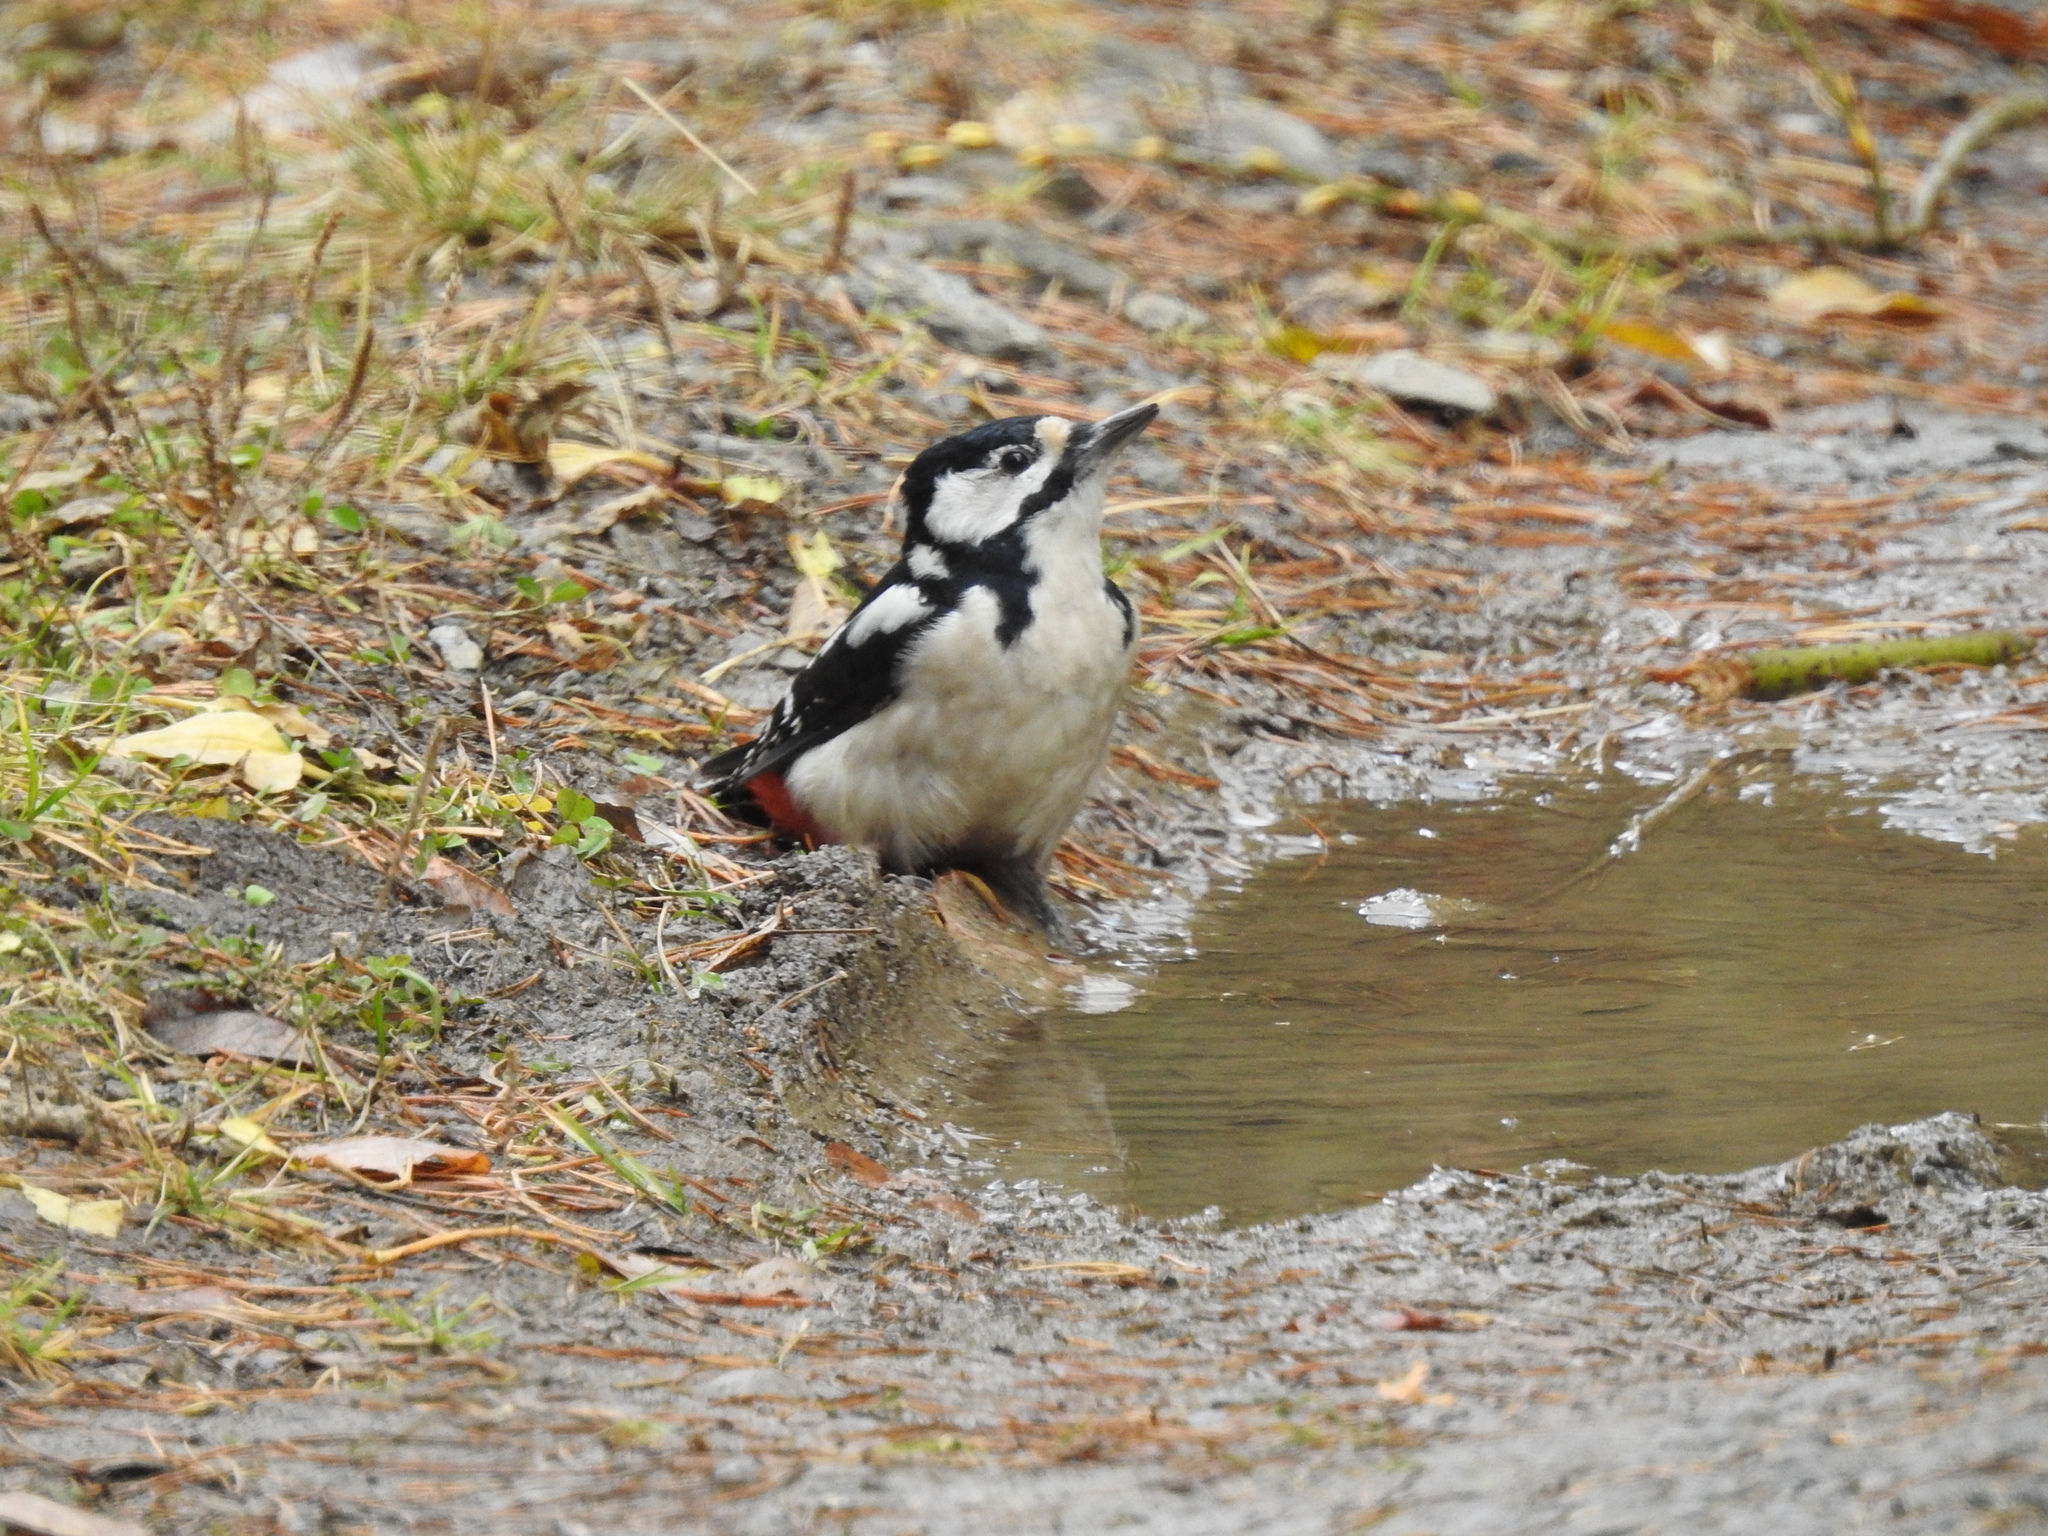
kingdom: Animalia
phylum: Chordata
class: Aves
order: Piciformes
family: Picidae
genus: Dendrocopos
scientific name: Dendrocopos major
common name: Great spotted woodpecker
